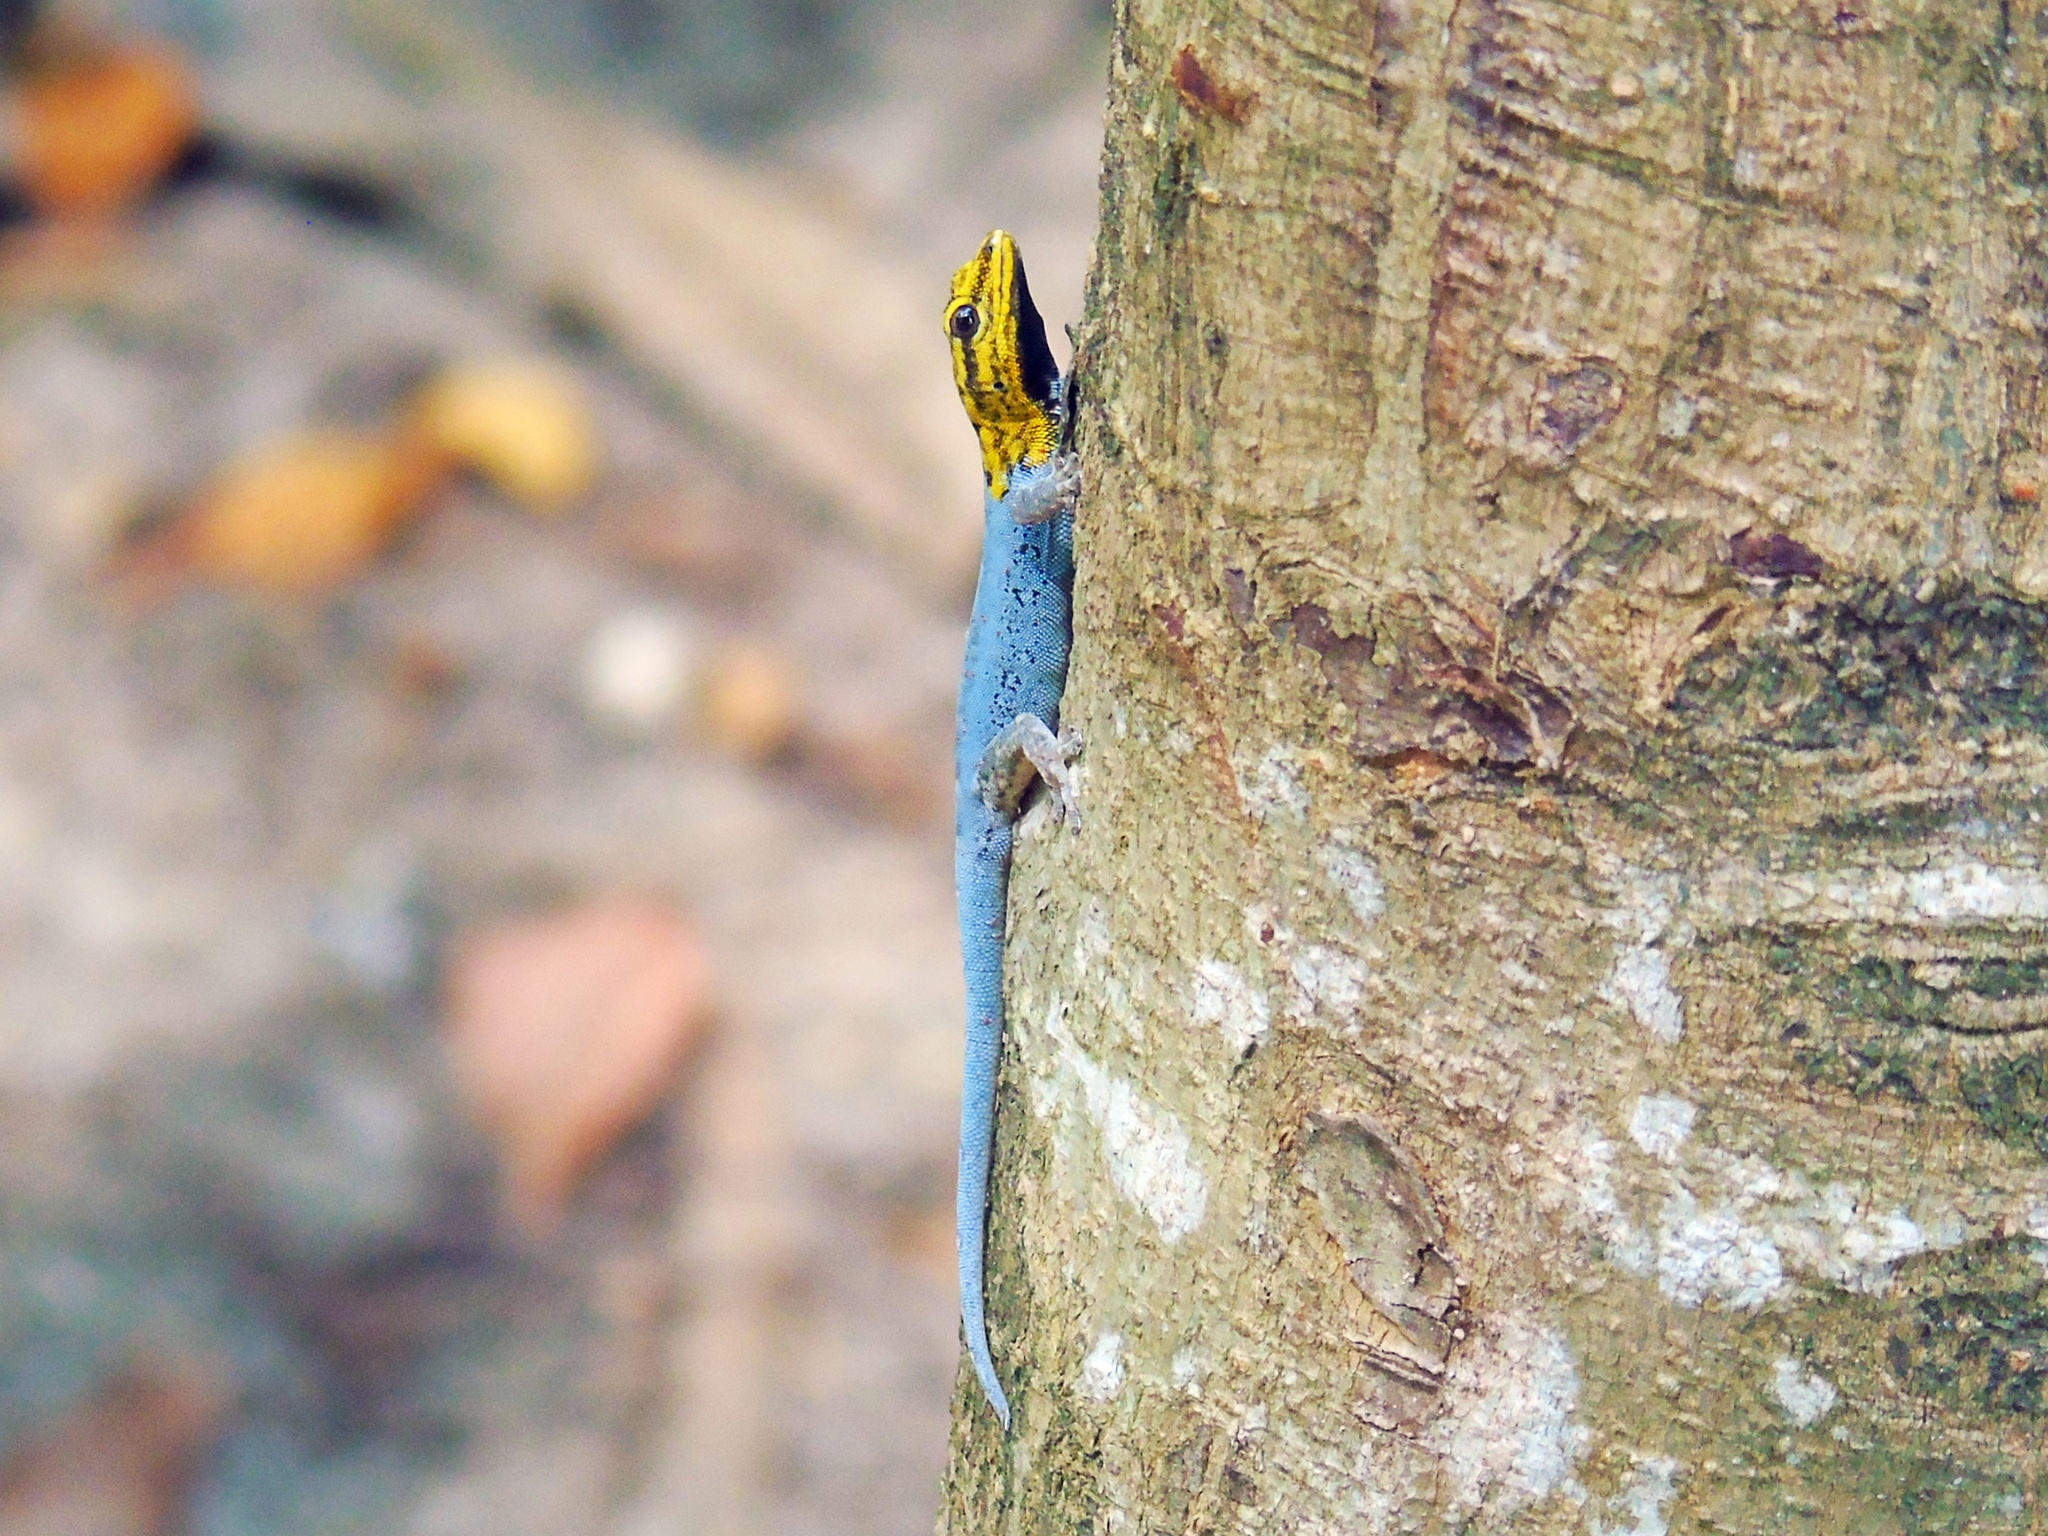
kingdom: Animalia
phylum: Chordata
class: Squamata
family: Gekkonidae
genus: Lygodactylus
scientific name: Lygodactylus picturatus
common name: Painted dwarf gecko
